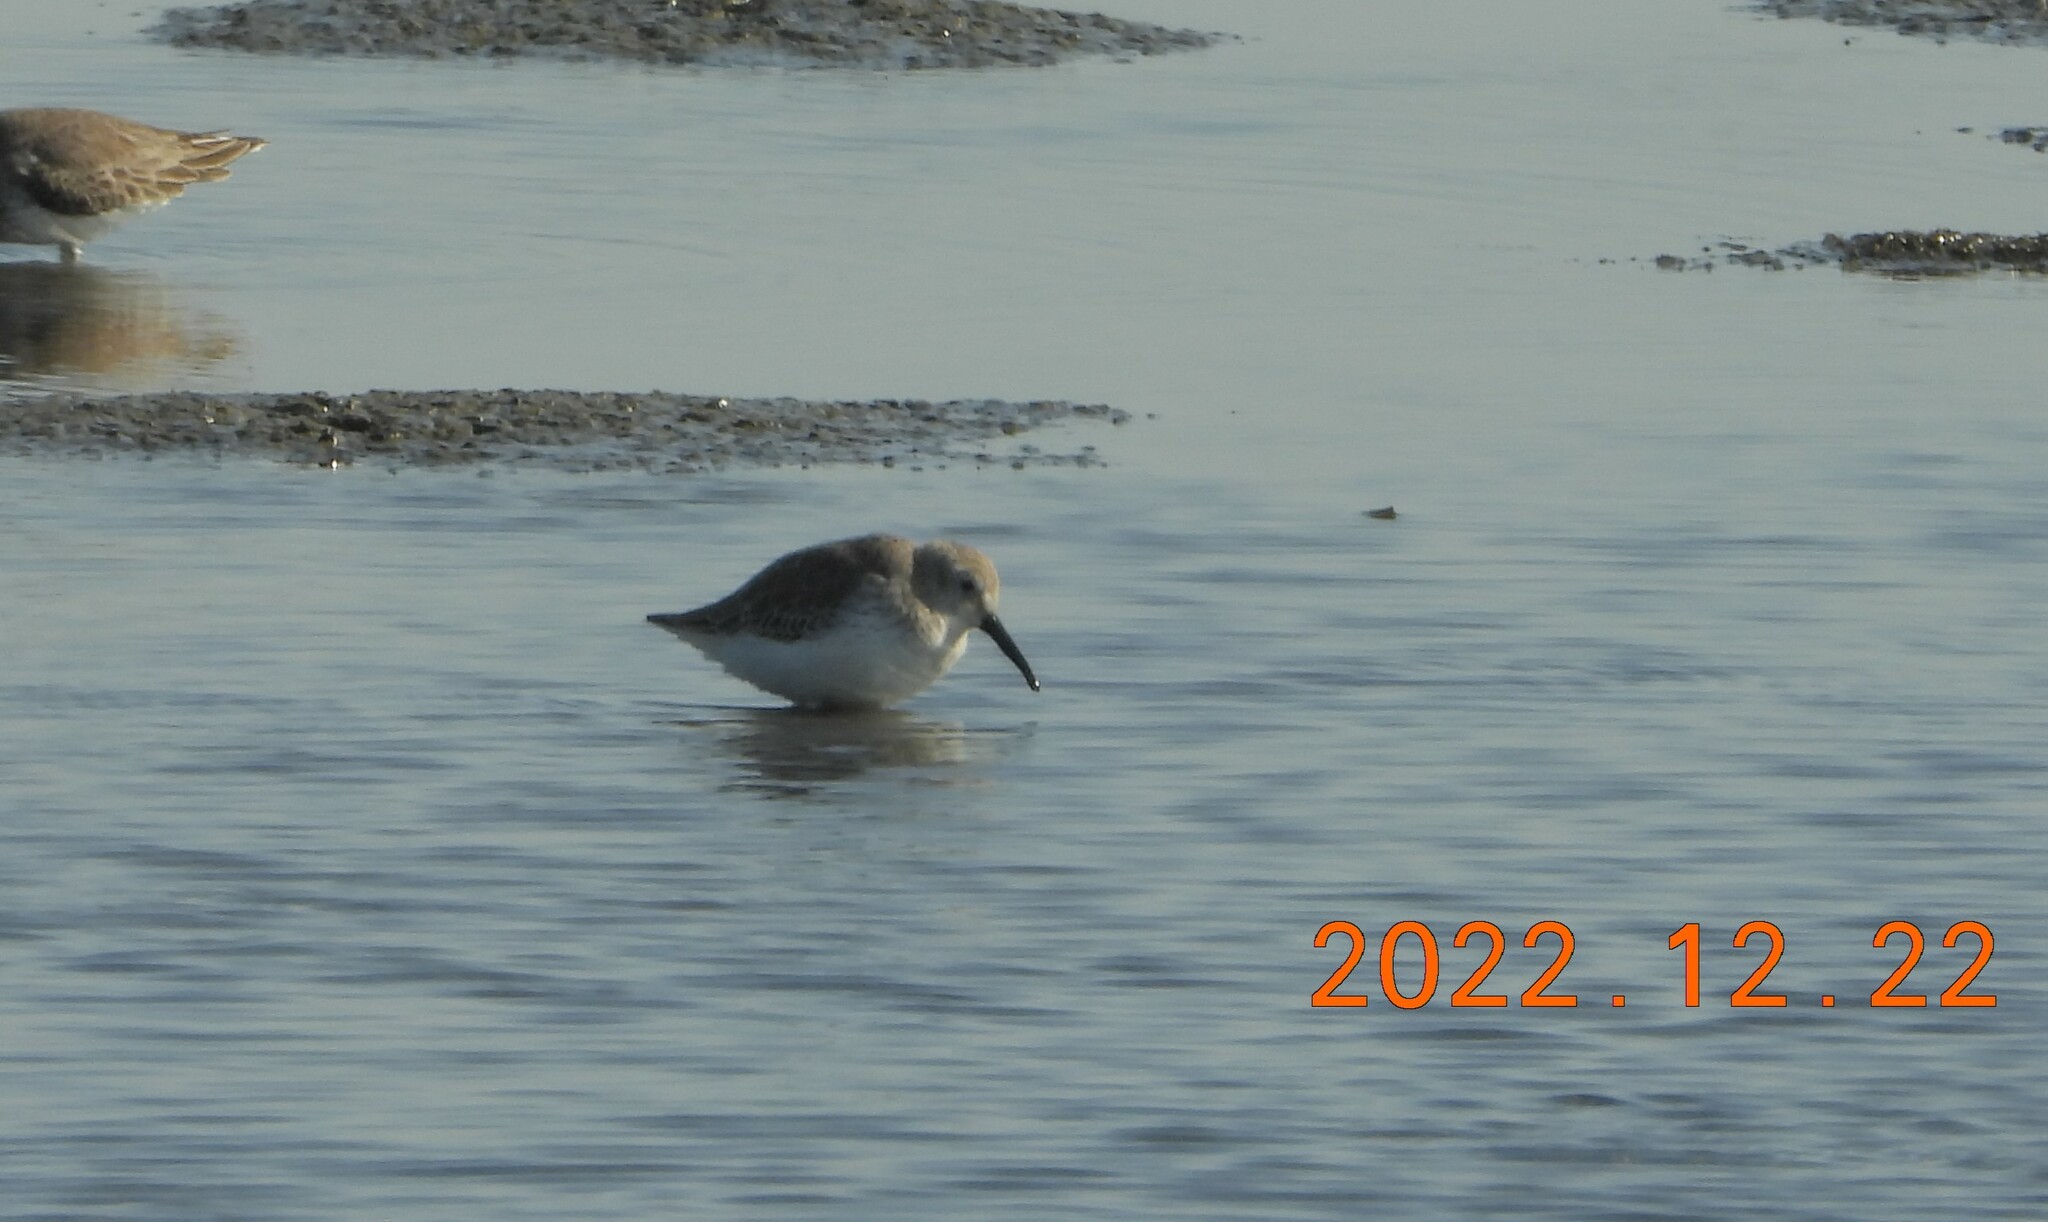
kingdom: Animalia
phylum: Chordata
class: Aves
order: Charadriiformes
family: Scolopacidae
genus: Calidris
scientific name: Calidris alpina
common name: Dunlin
